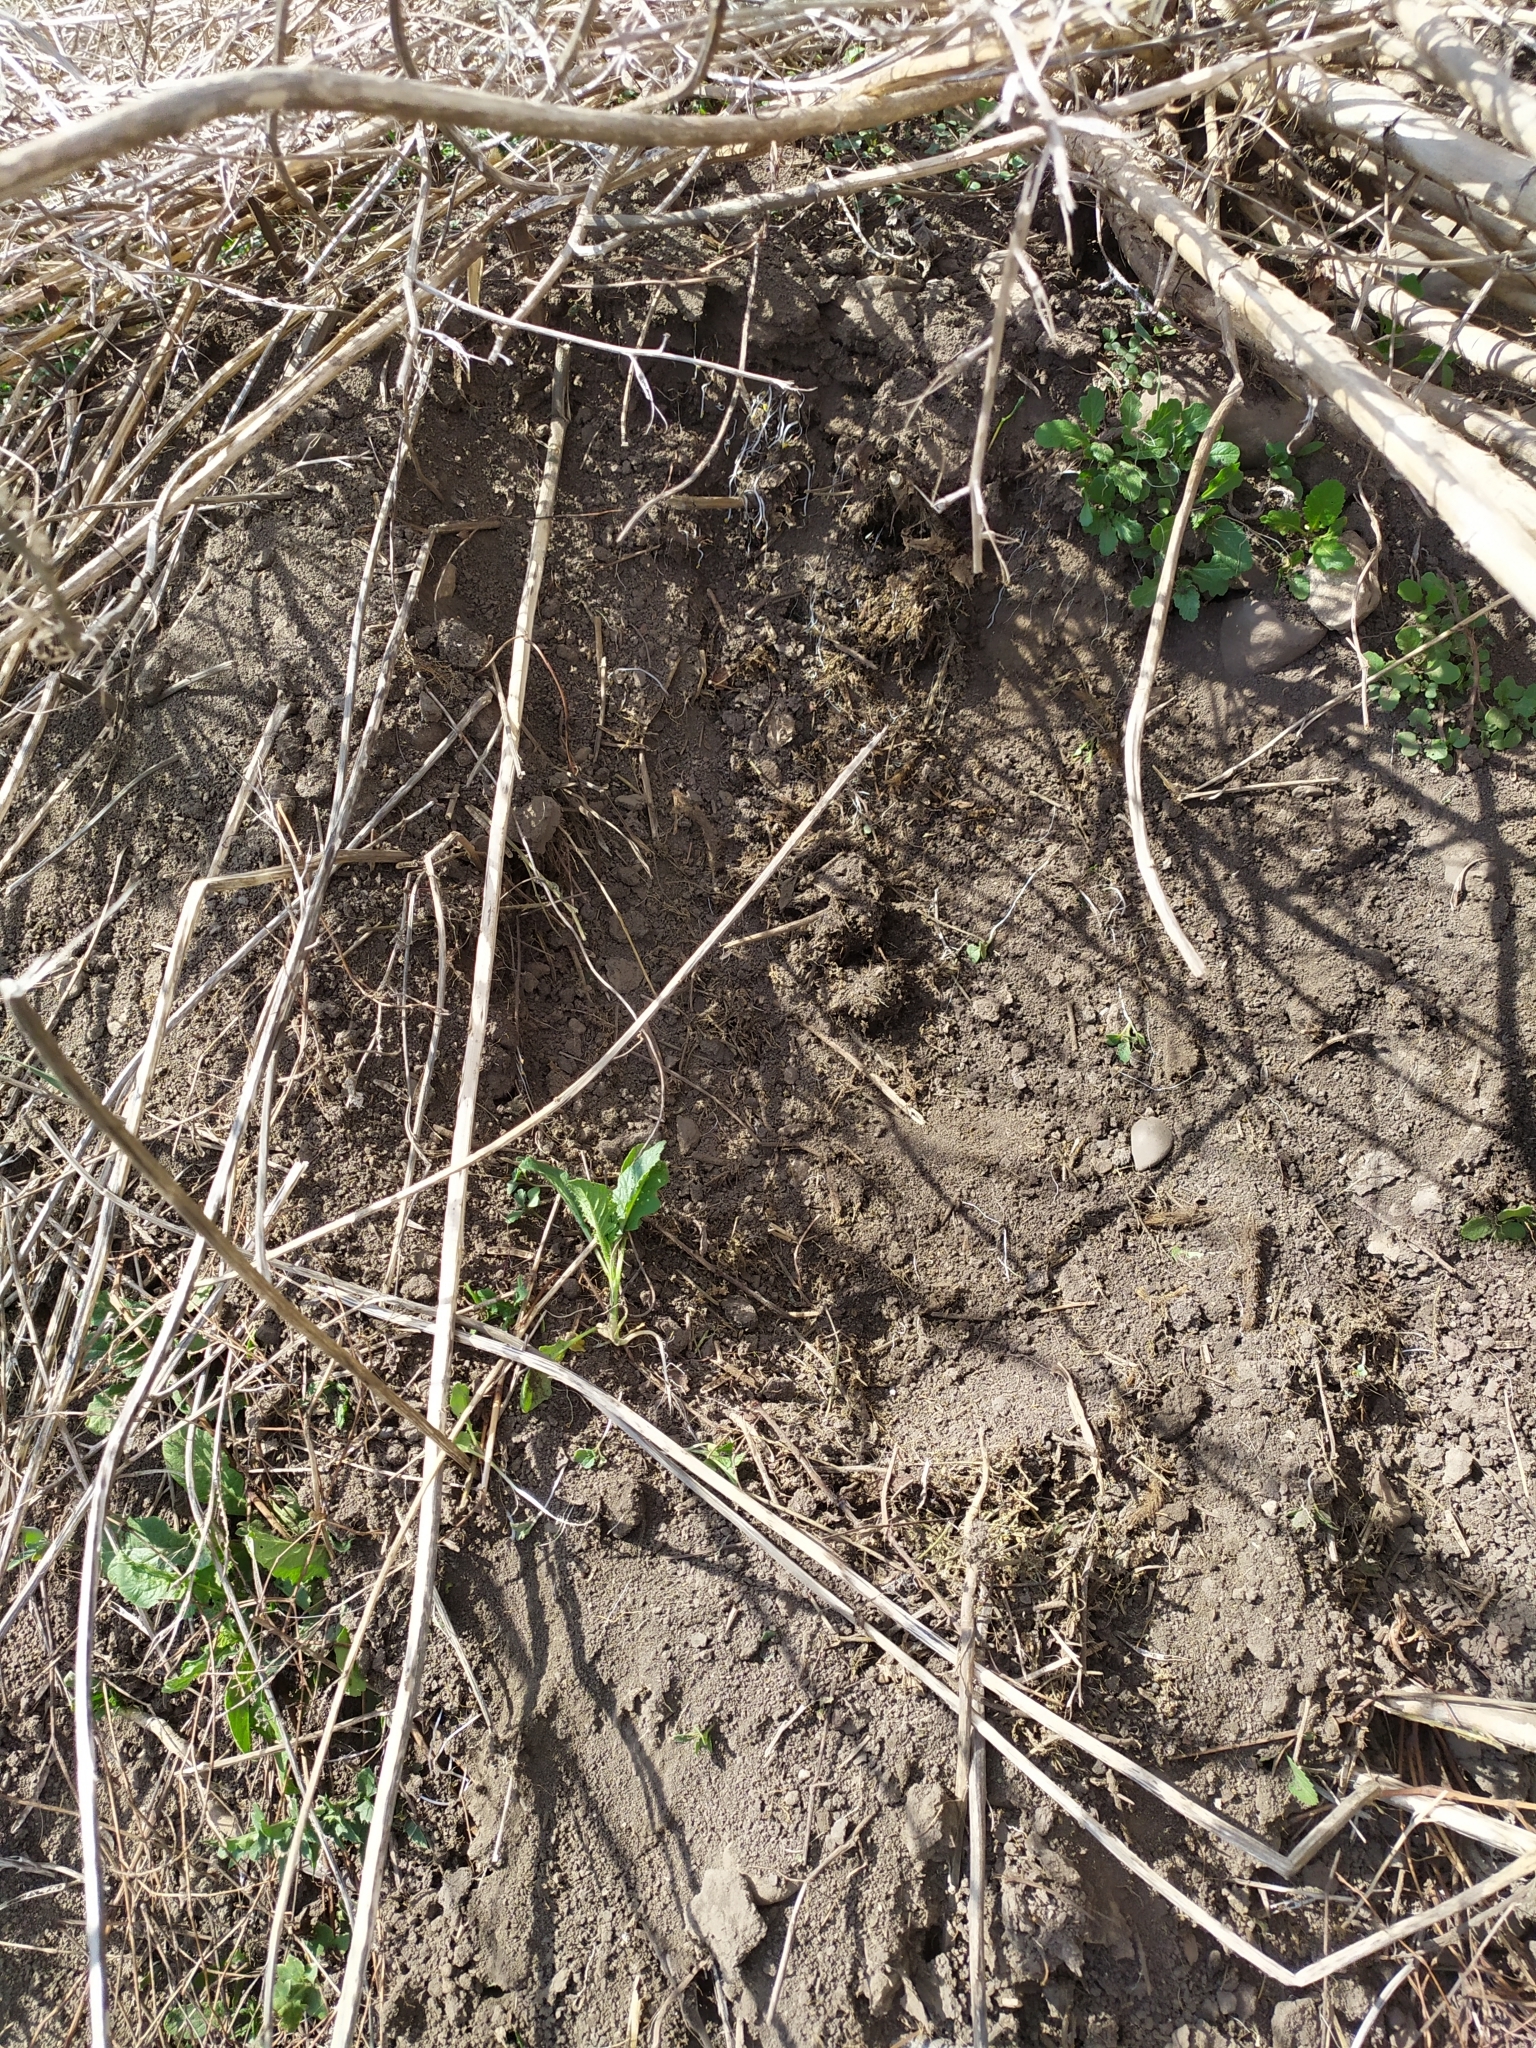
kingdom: Animalia
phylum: Chordata
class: Mammalia
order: Rodentia
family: Muridae
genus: Mus
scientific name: Mus spicilegus
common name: Mound-building mouse
